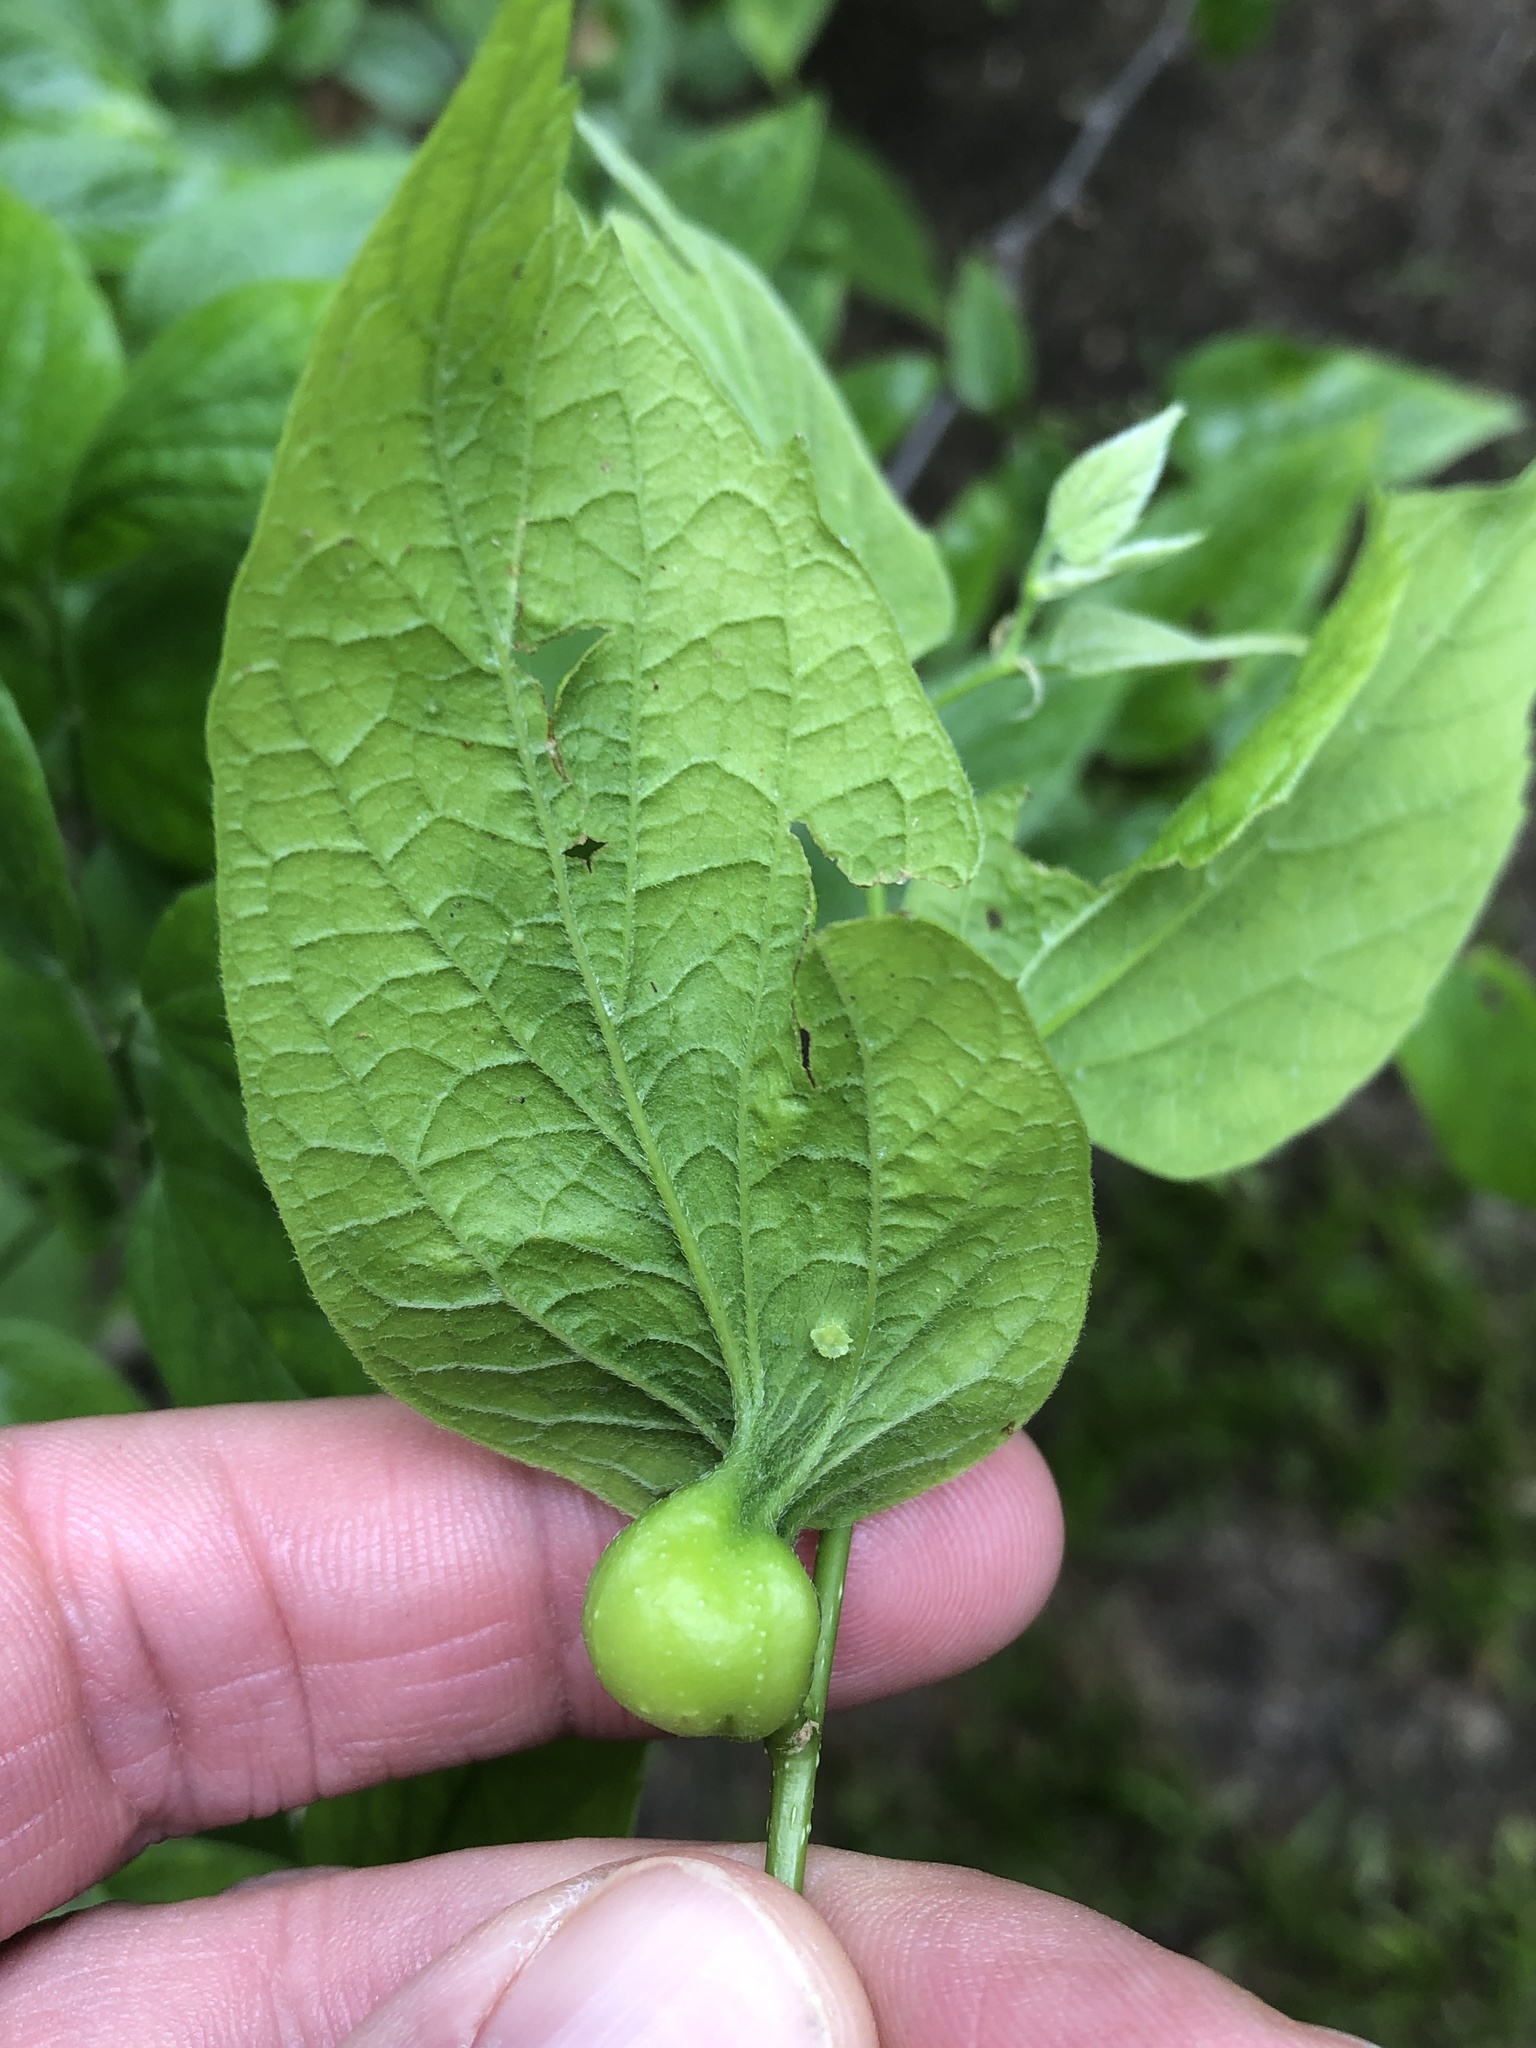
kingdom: Animalia
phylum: Arthropoda
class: Insecta
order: Hemiptera
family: Aphalaridae
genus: Pachypsylla
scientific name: Pachypsylla venusta
